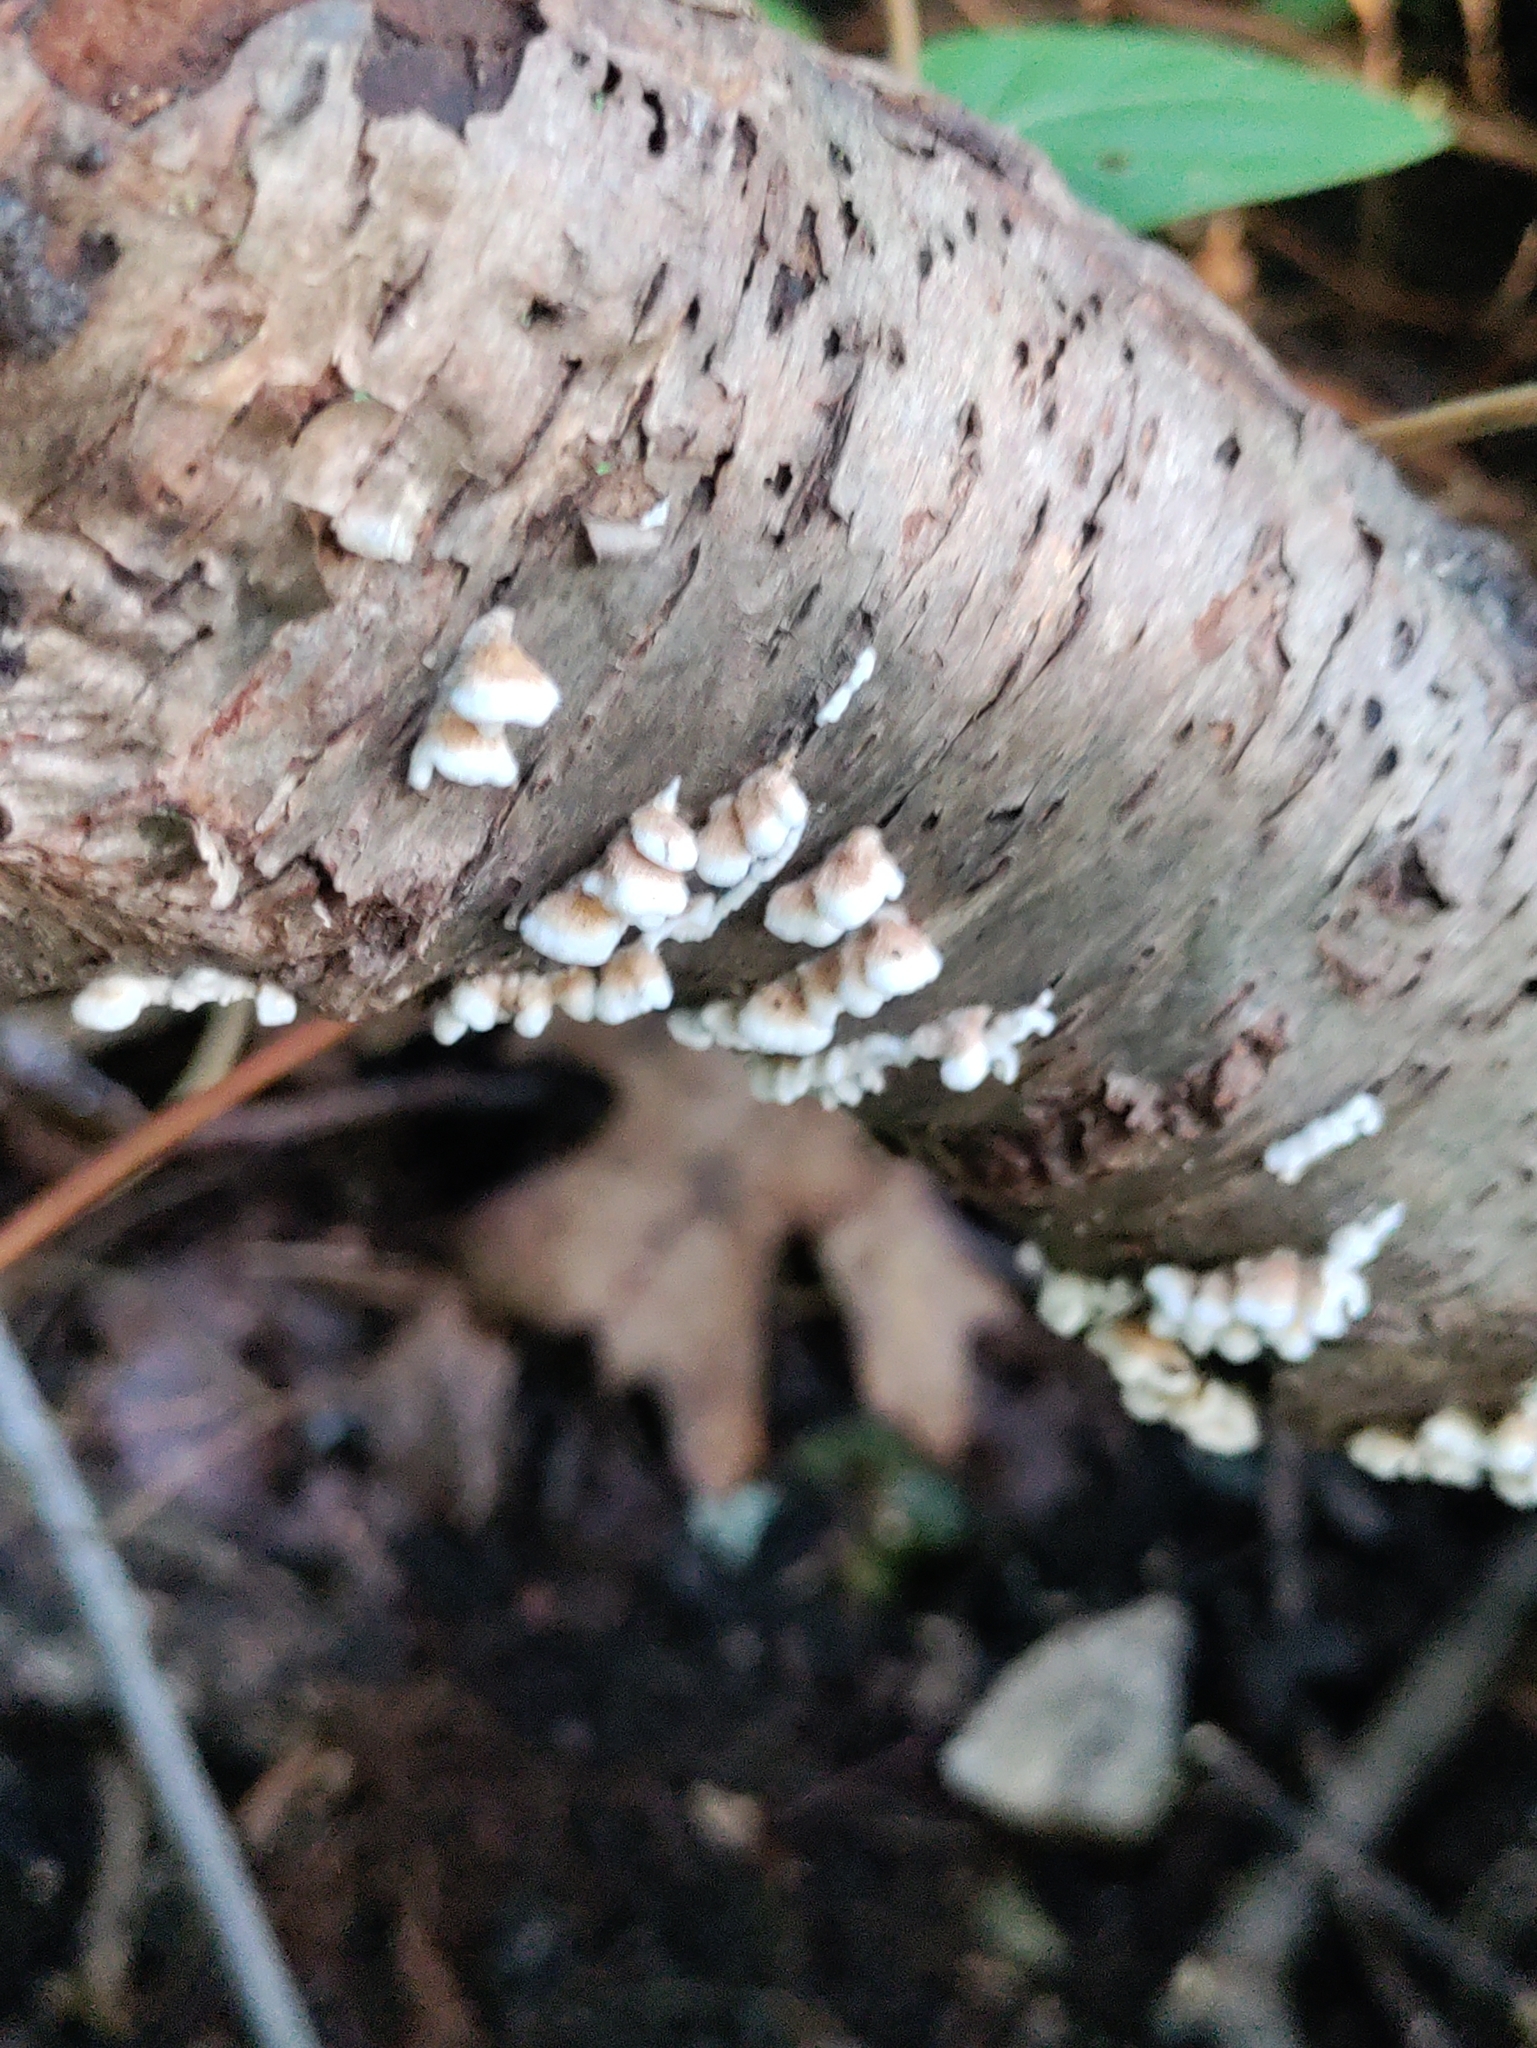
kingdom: Fungi
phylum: Basidiomycota
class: Agaricomycetes
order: Amylocorticiales
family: Amylocorticiaceae
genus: Plicaturopsis
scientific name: Plicaturopsis crispa
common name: Crimped gill
